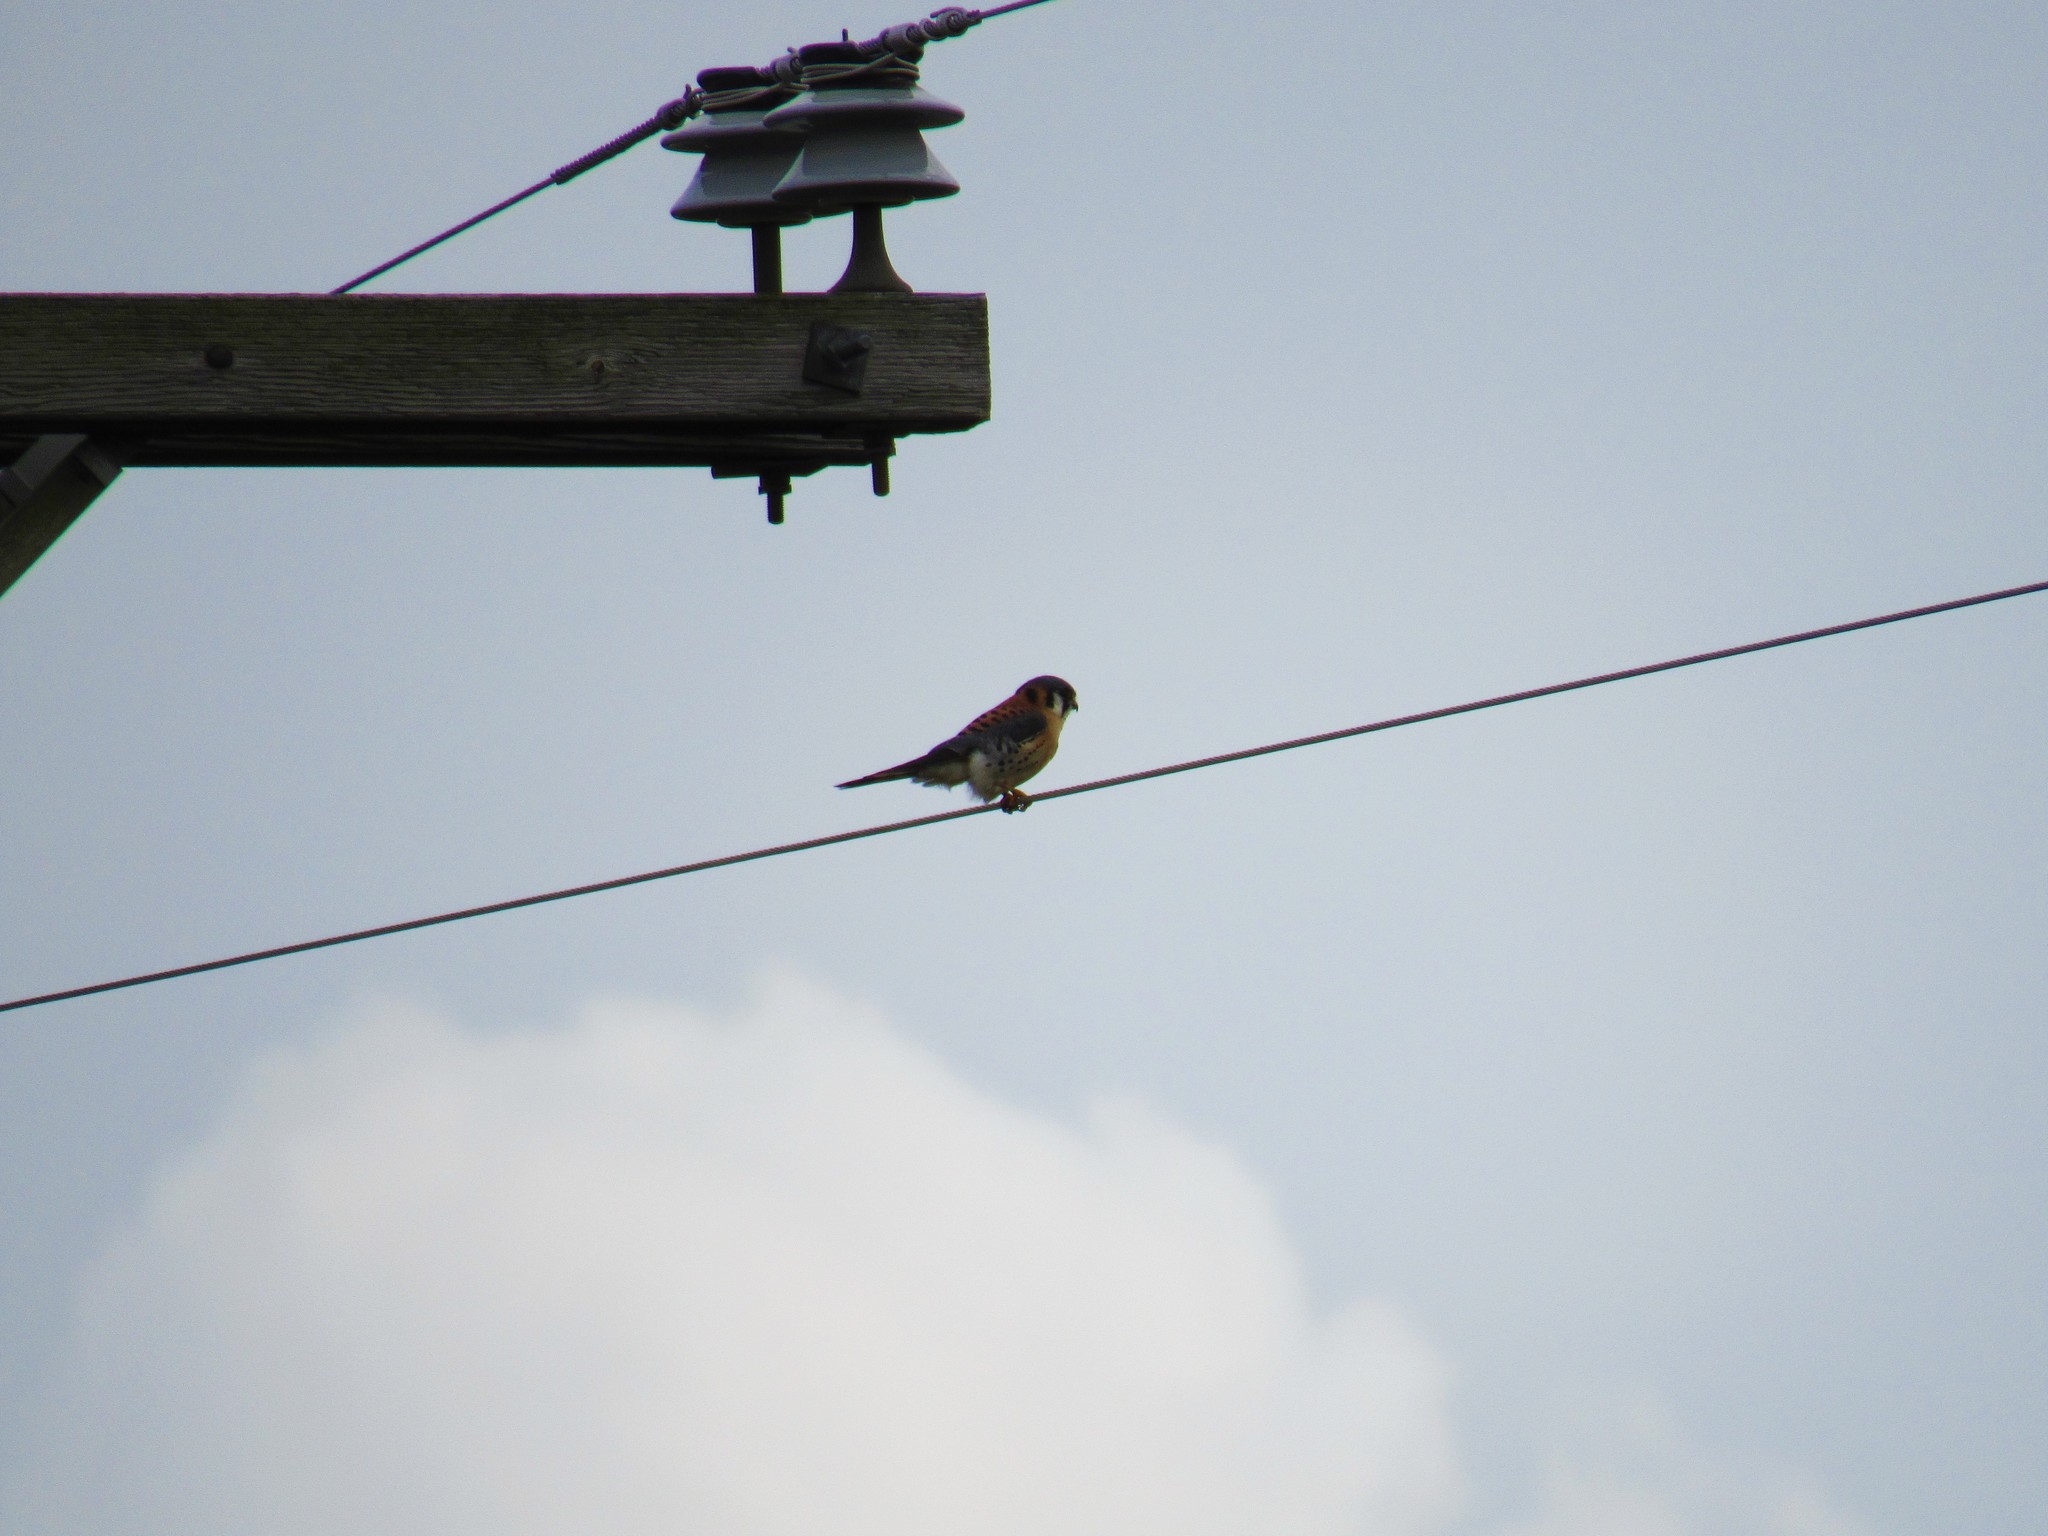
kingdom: Animalia
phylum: Chordata
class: Aves
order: Falconiformes
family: Falconidae
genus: Falco
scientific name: Falco sparverius
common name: American kestrel
